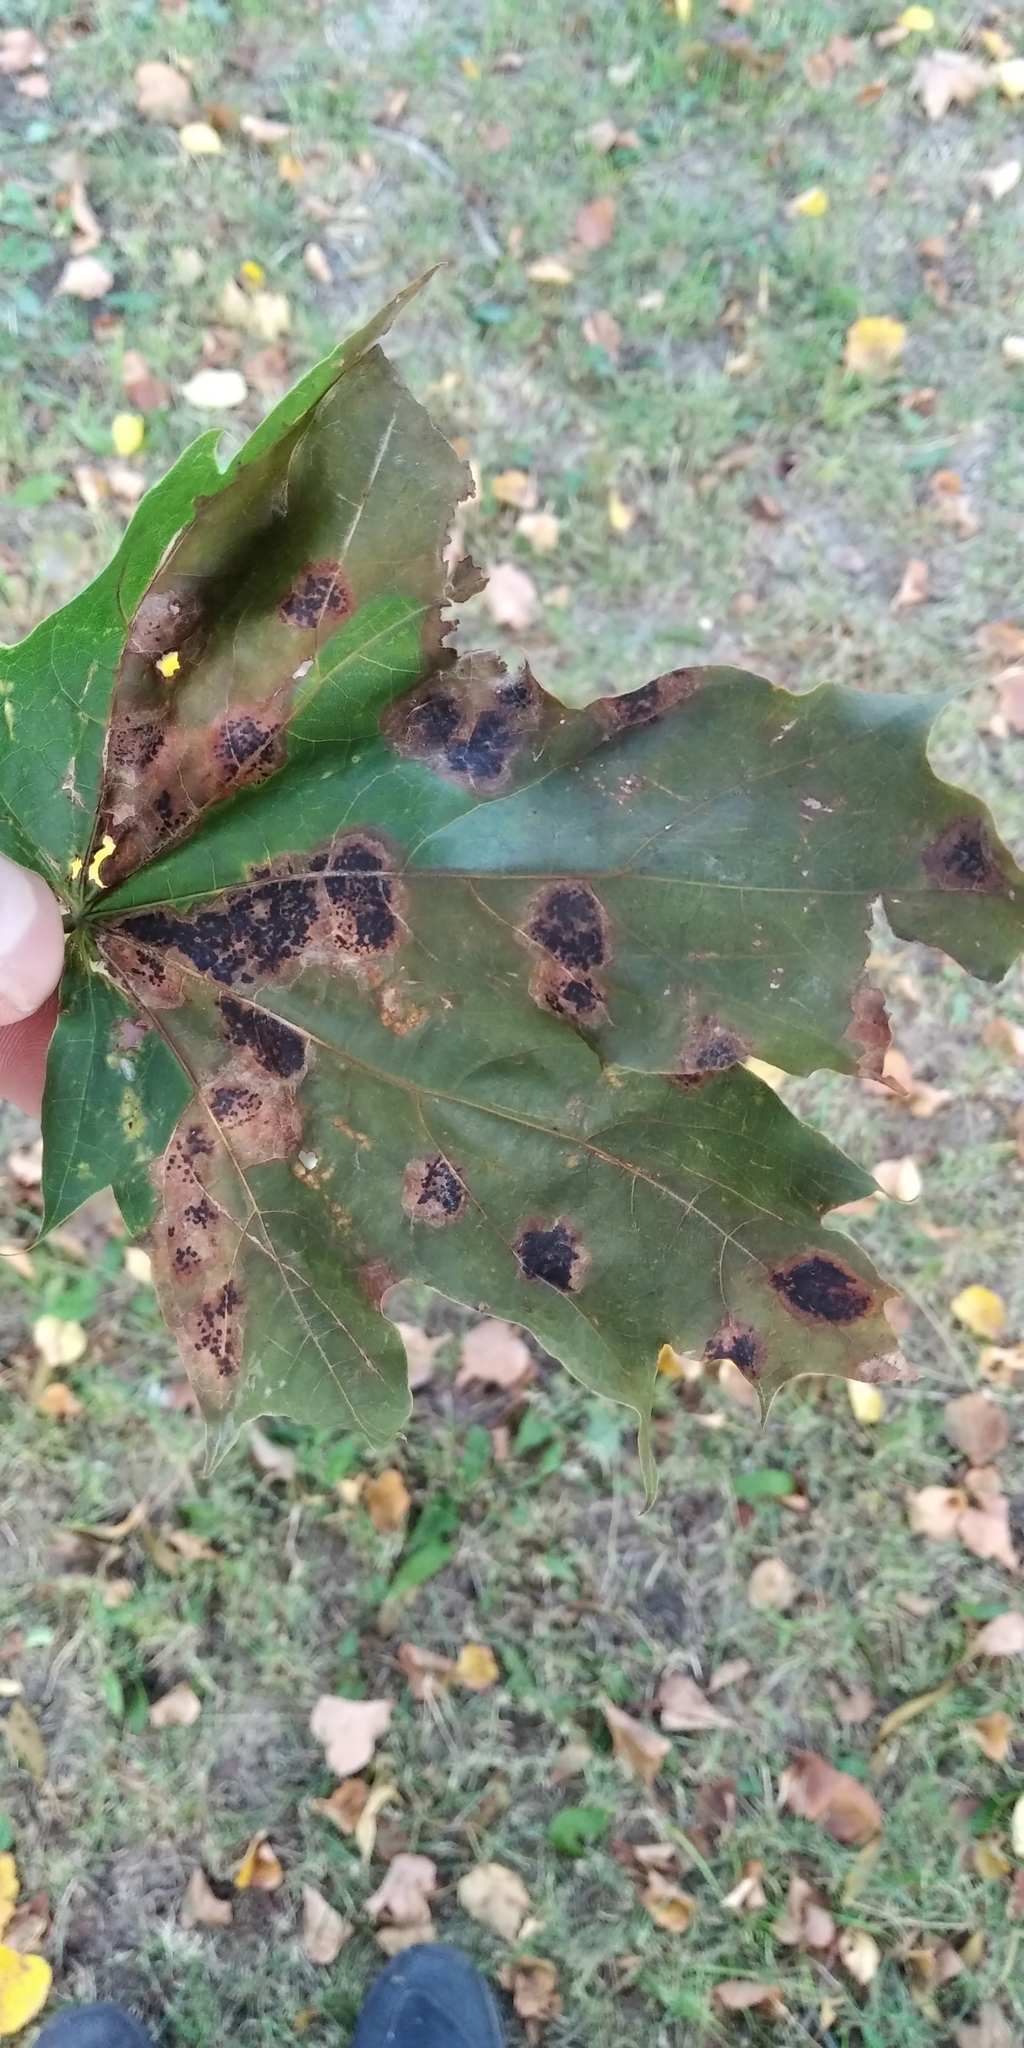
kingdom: Fungi
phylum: Ascomycota
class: Leotiomycetes
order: Rhytismatales
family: Rhytismataceae
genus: Rhytisma
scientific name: Rhytisma acerinum
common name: European tar spot
